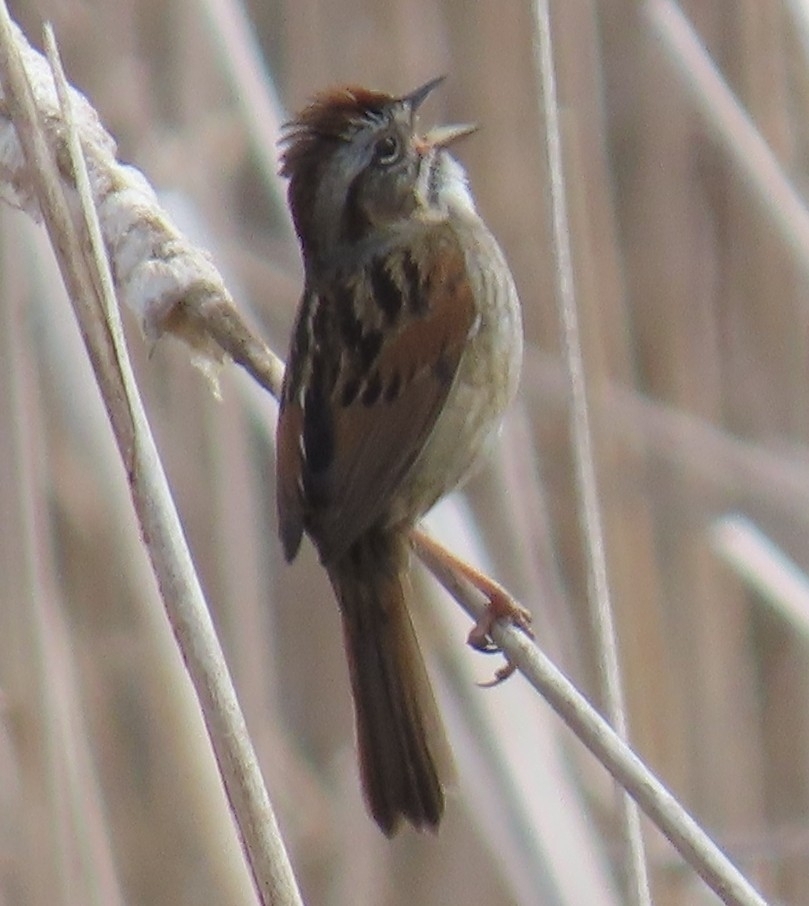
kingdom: Animalia
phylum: Chordata
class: Aves
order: Passeriformes
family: Passerellidae
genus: Melospiza
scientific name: Melospiza georgiana
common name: Swamp sparrow
